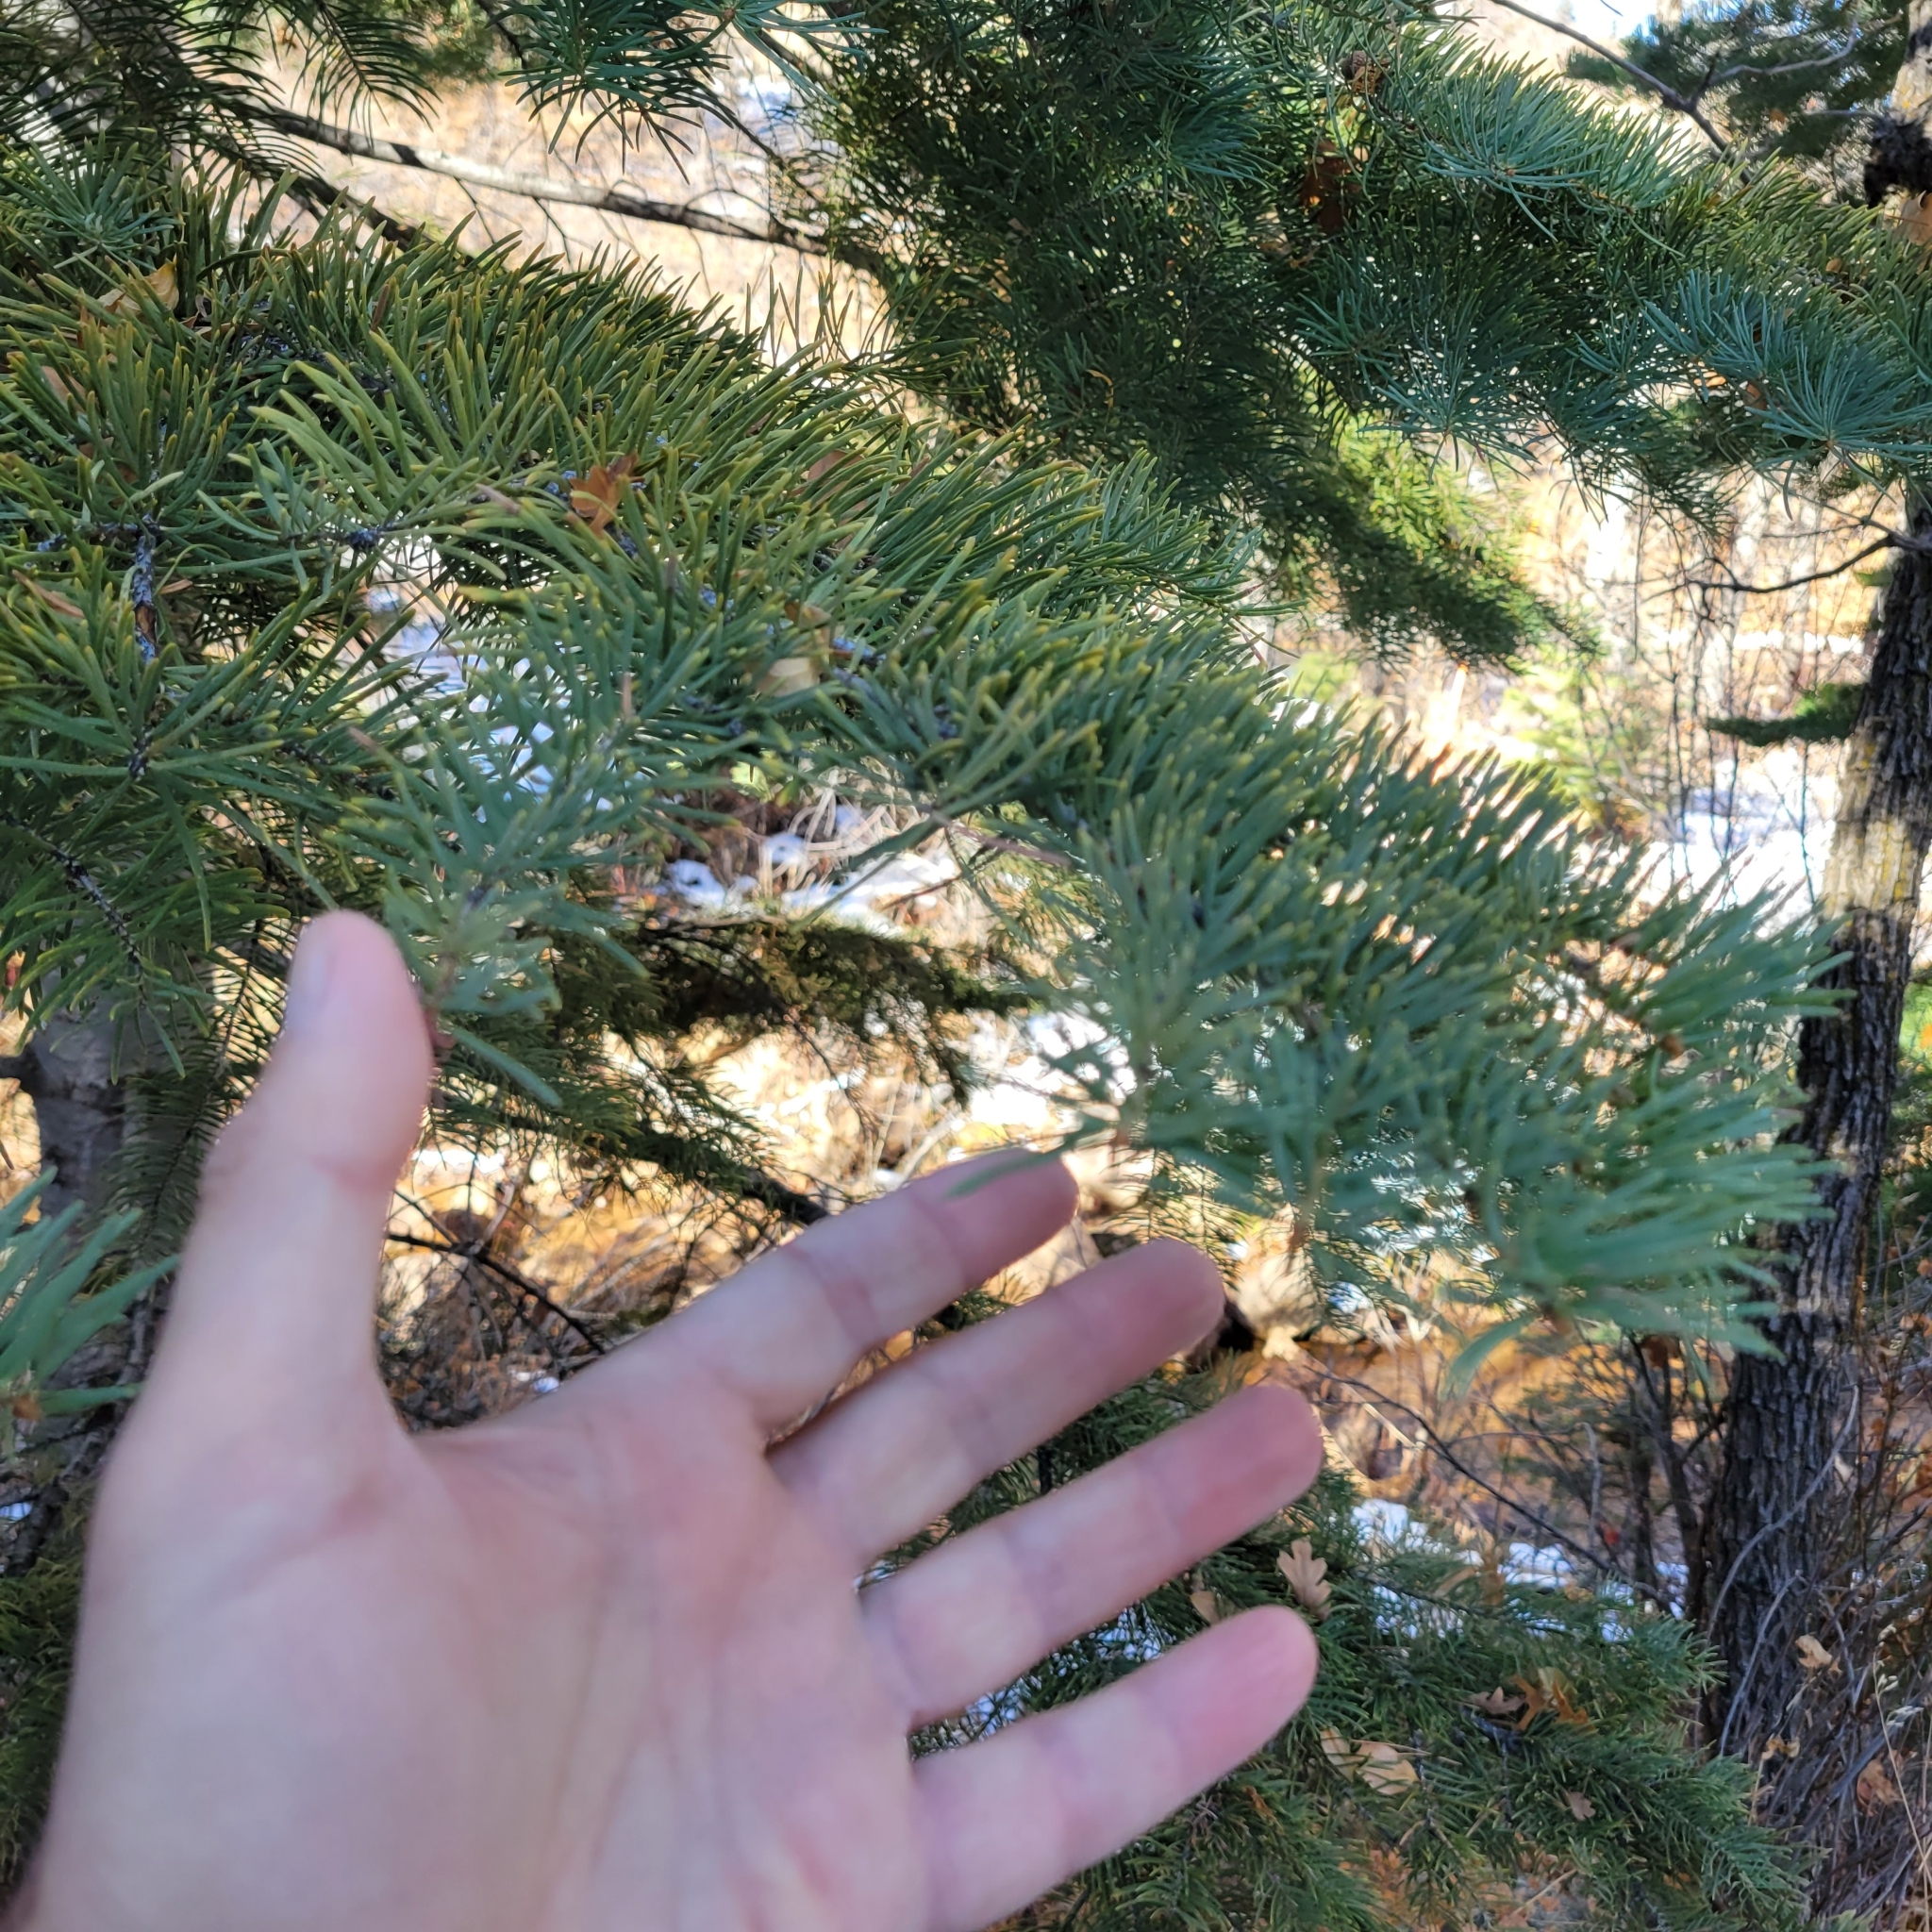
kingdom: Plantae
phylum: Tracheophyta
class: Pinopsida
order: Pinales
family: Pinaceae
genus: Abies
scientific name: Abies concolor
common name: Colorado fir
